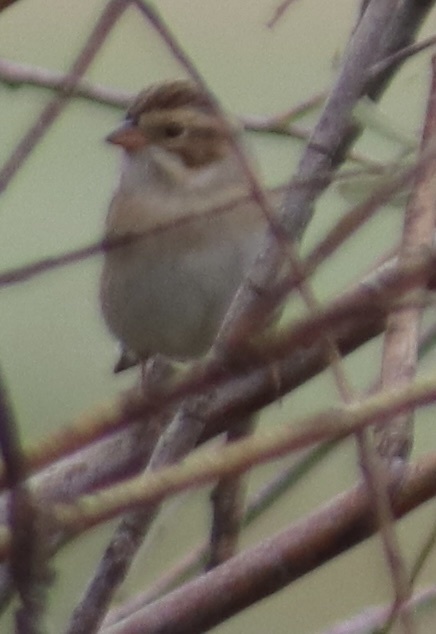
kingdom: Animalia
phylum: Chordata
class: Aves
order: Passeriformes
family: Passerellidae
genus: Spizella
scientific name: Spizella pallida
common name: Clay-colored sparrow
